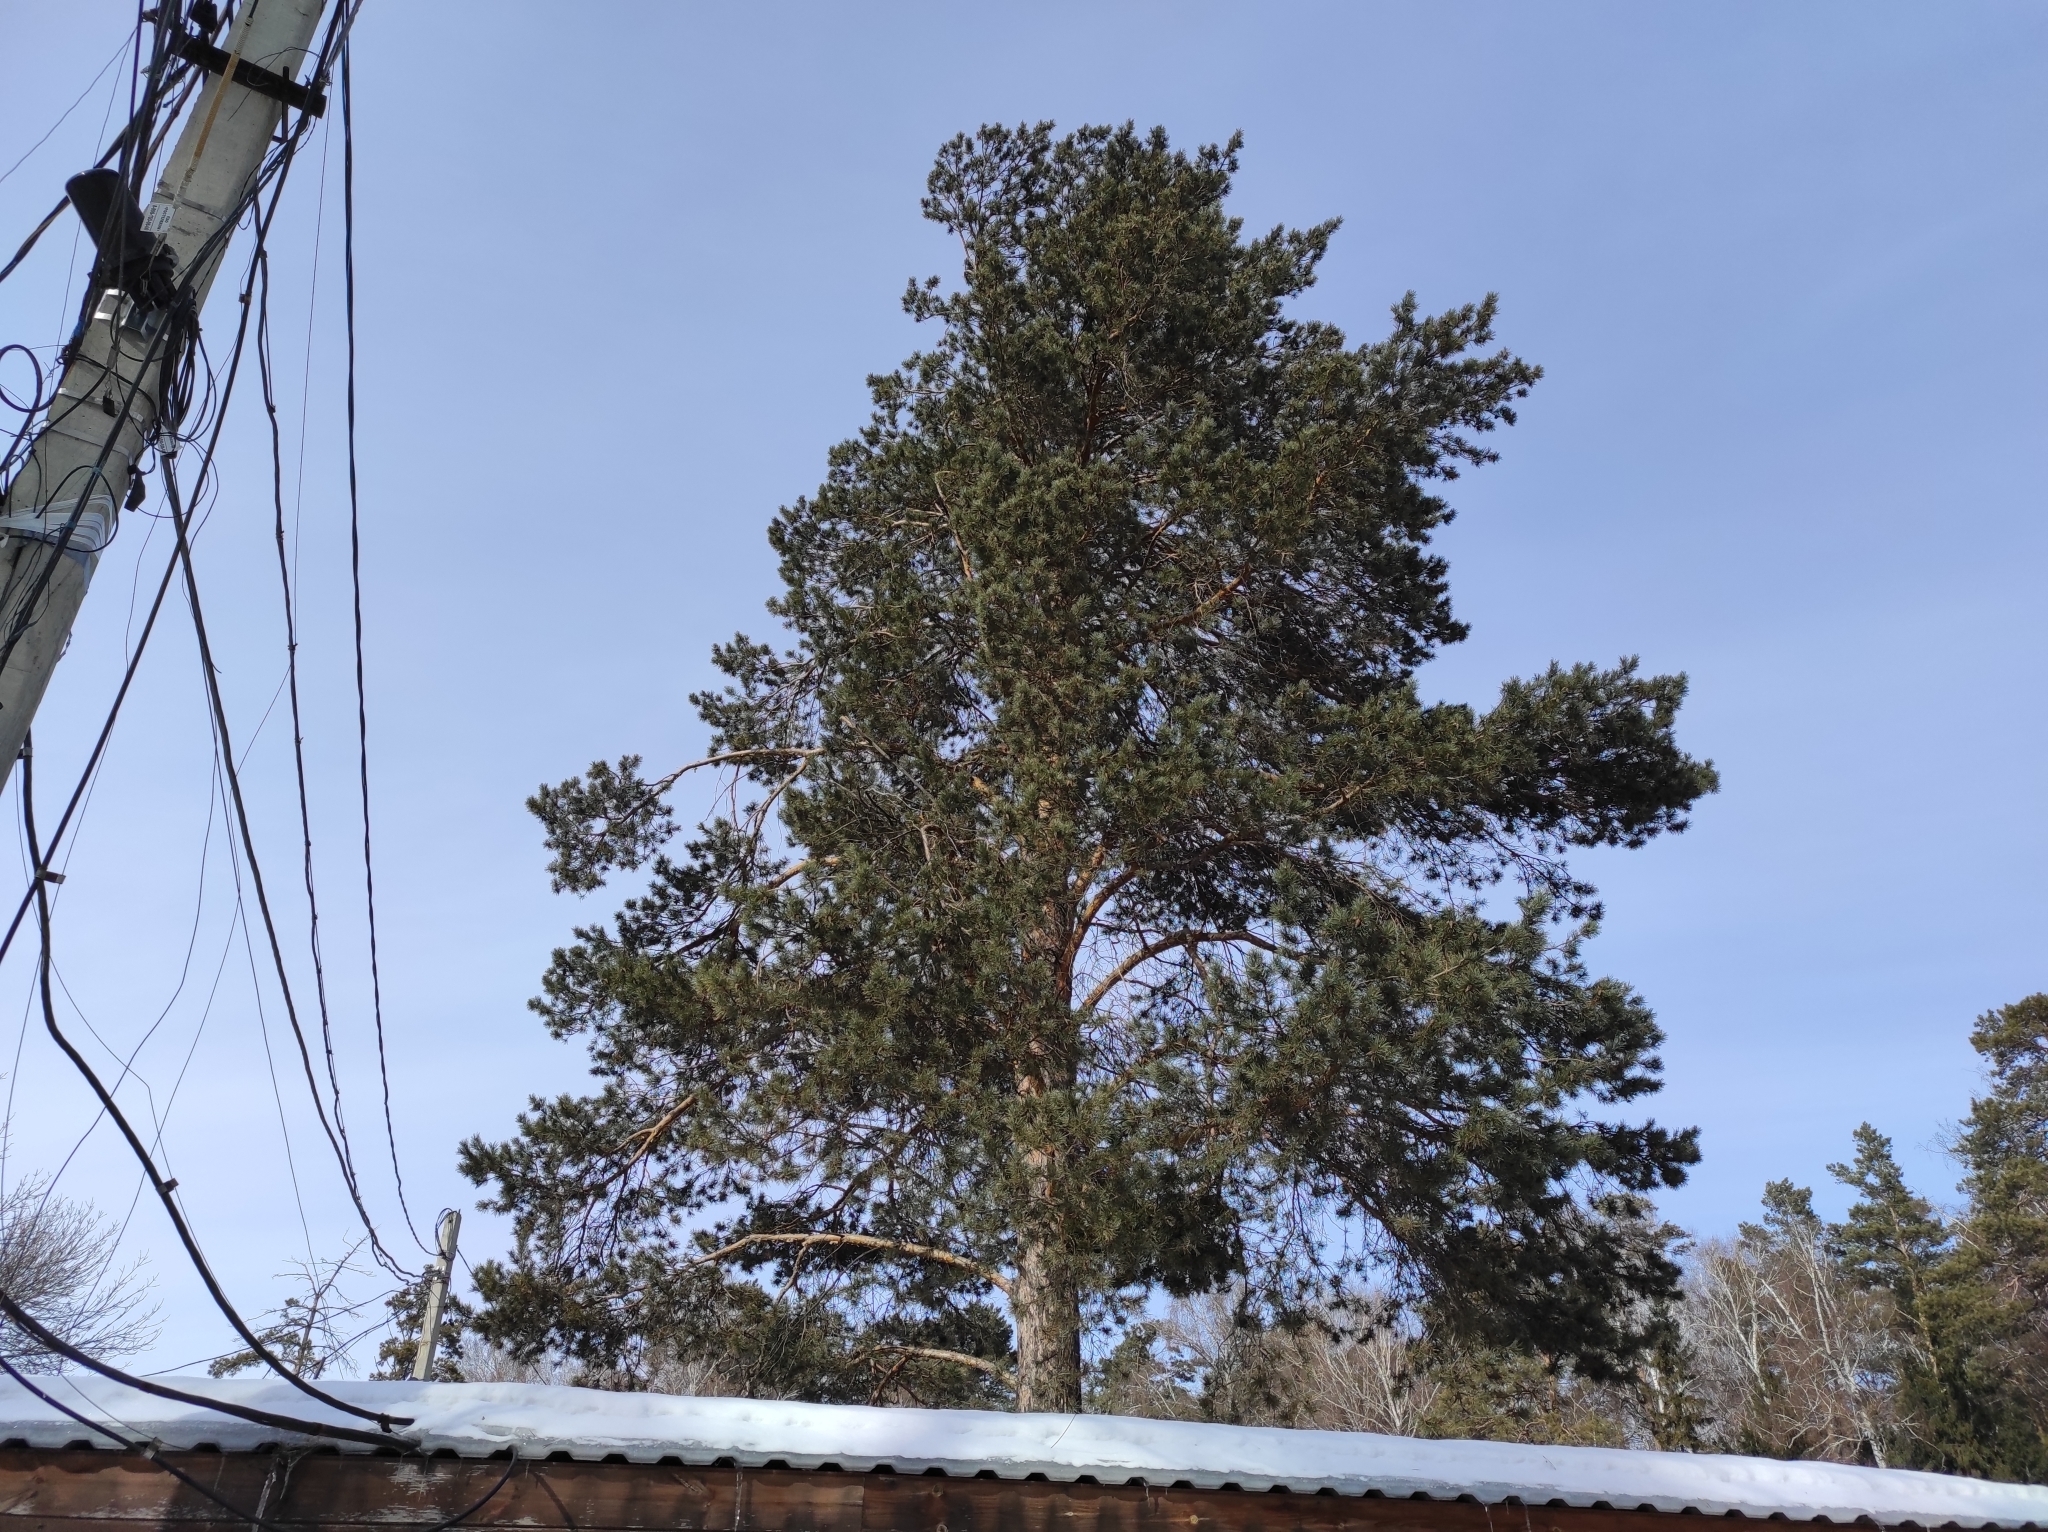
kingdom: Plantae
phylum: Tracheophyta
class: Pinopsida
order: Pinales
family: Pinaceae
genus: Pinus
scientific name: Pinus sylvestris
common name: Scots pine
